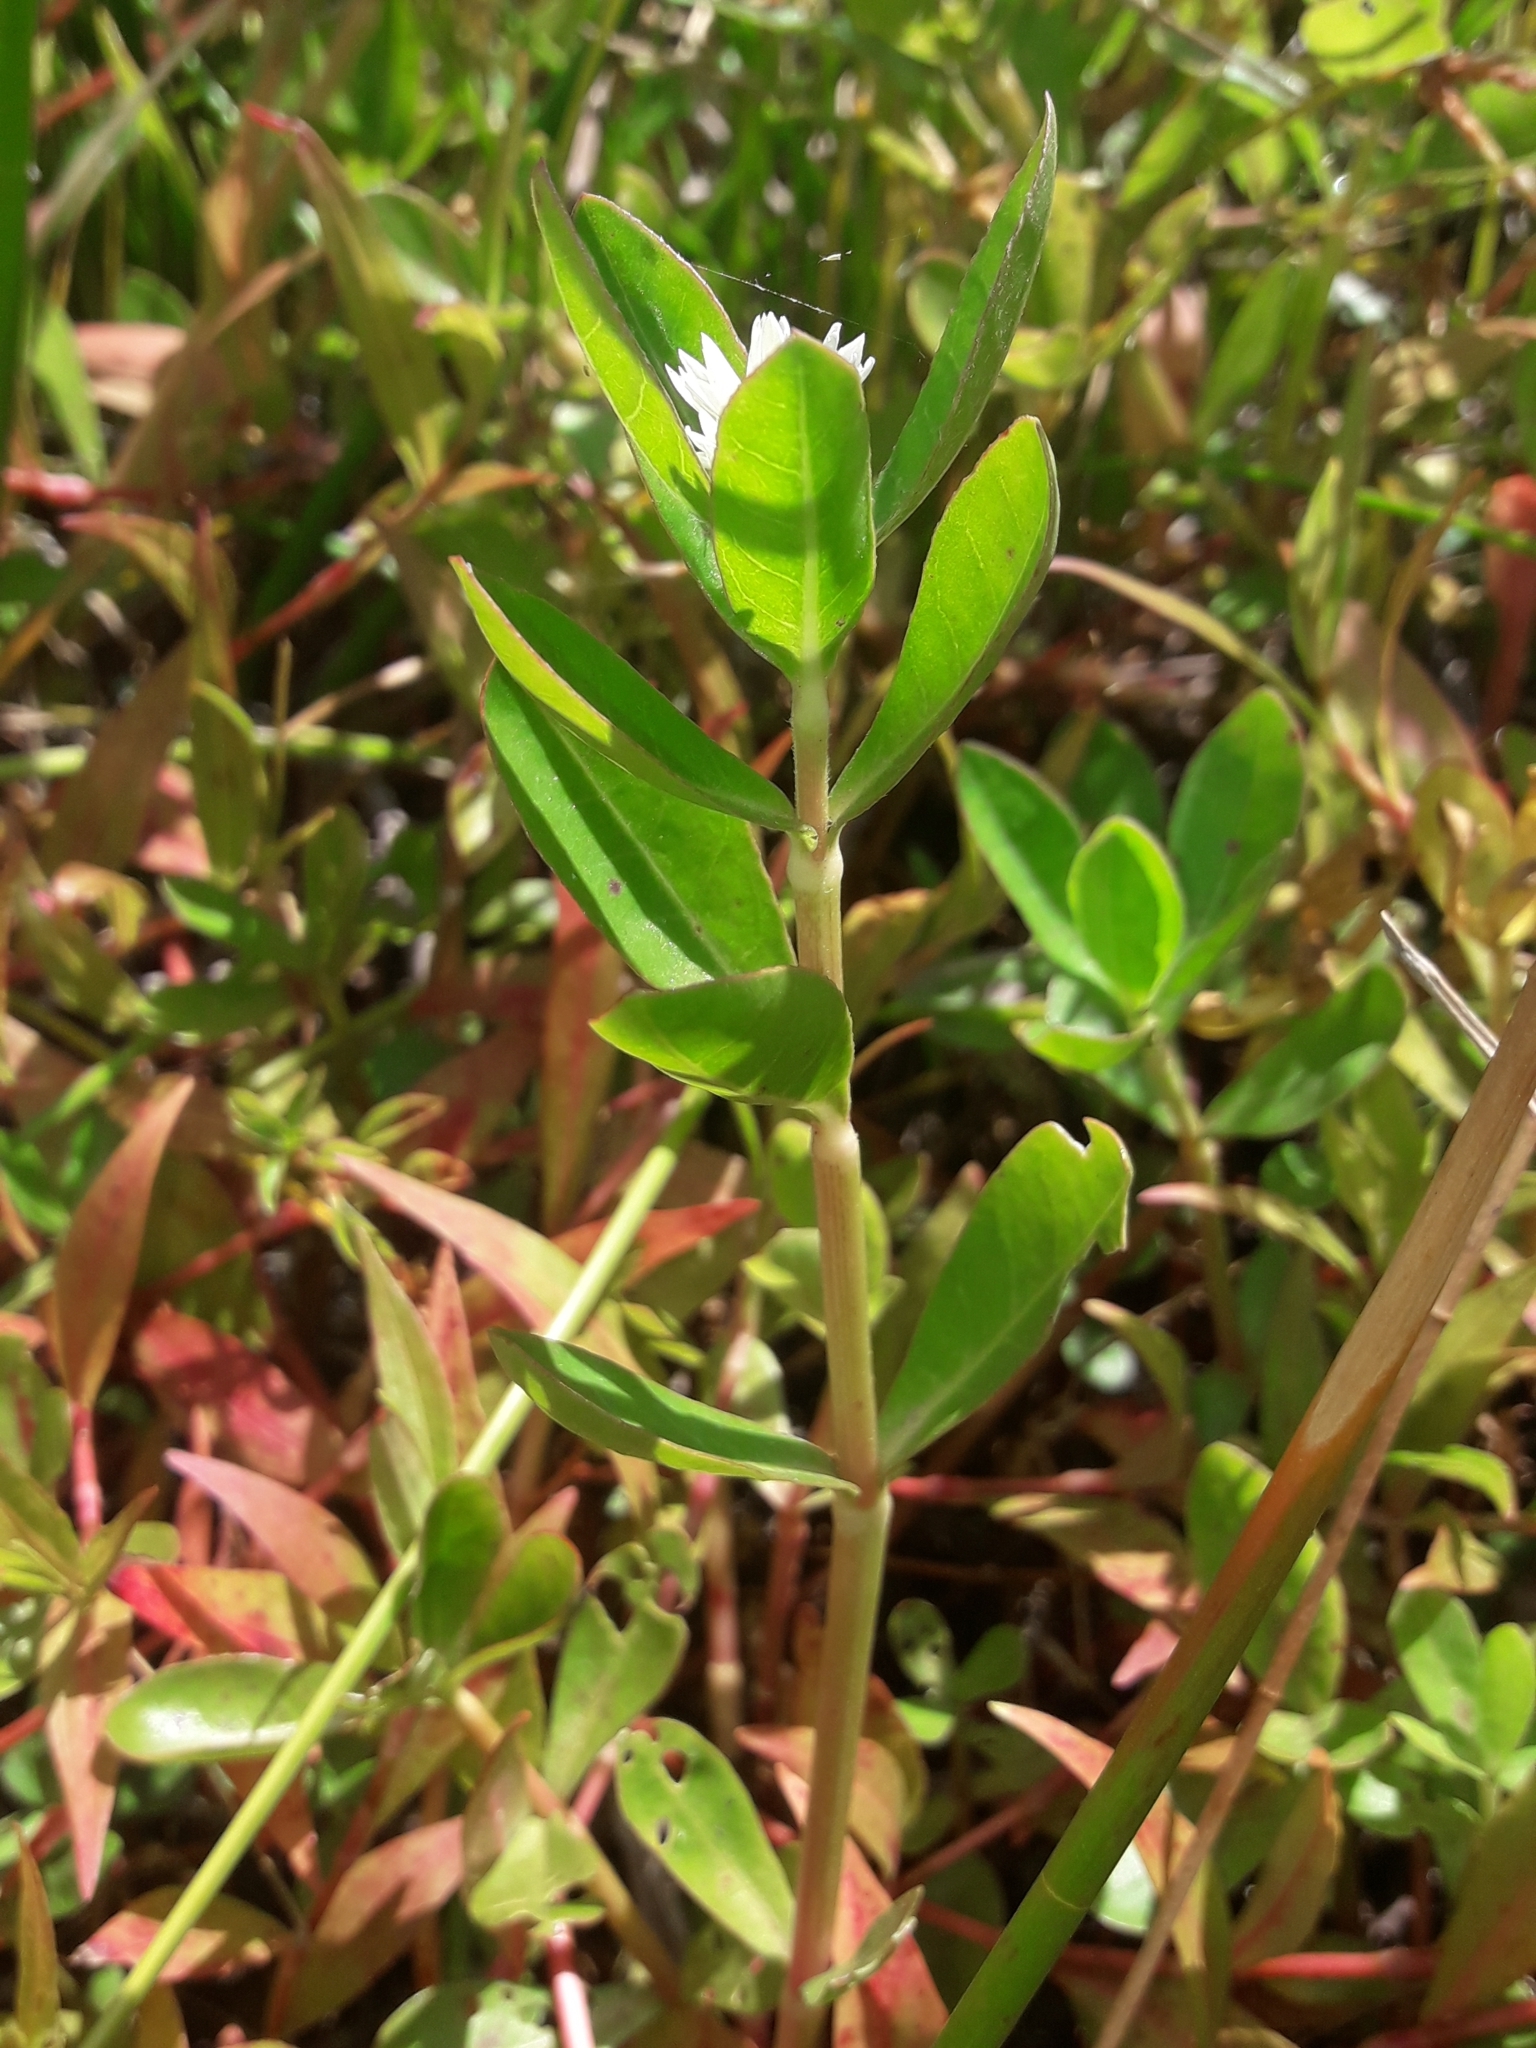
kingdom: Plantae
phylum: Tracheophyta
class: Magnoliopsida
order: Caryophyllales
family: Amaranthaceae
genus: Alternanthera
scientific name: Alternanthera philoxeroides
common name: Alligatorweed
